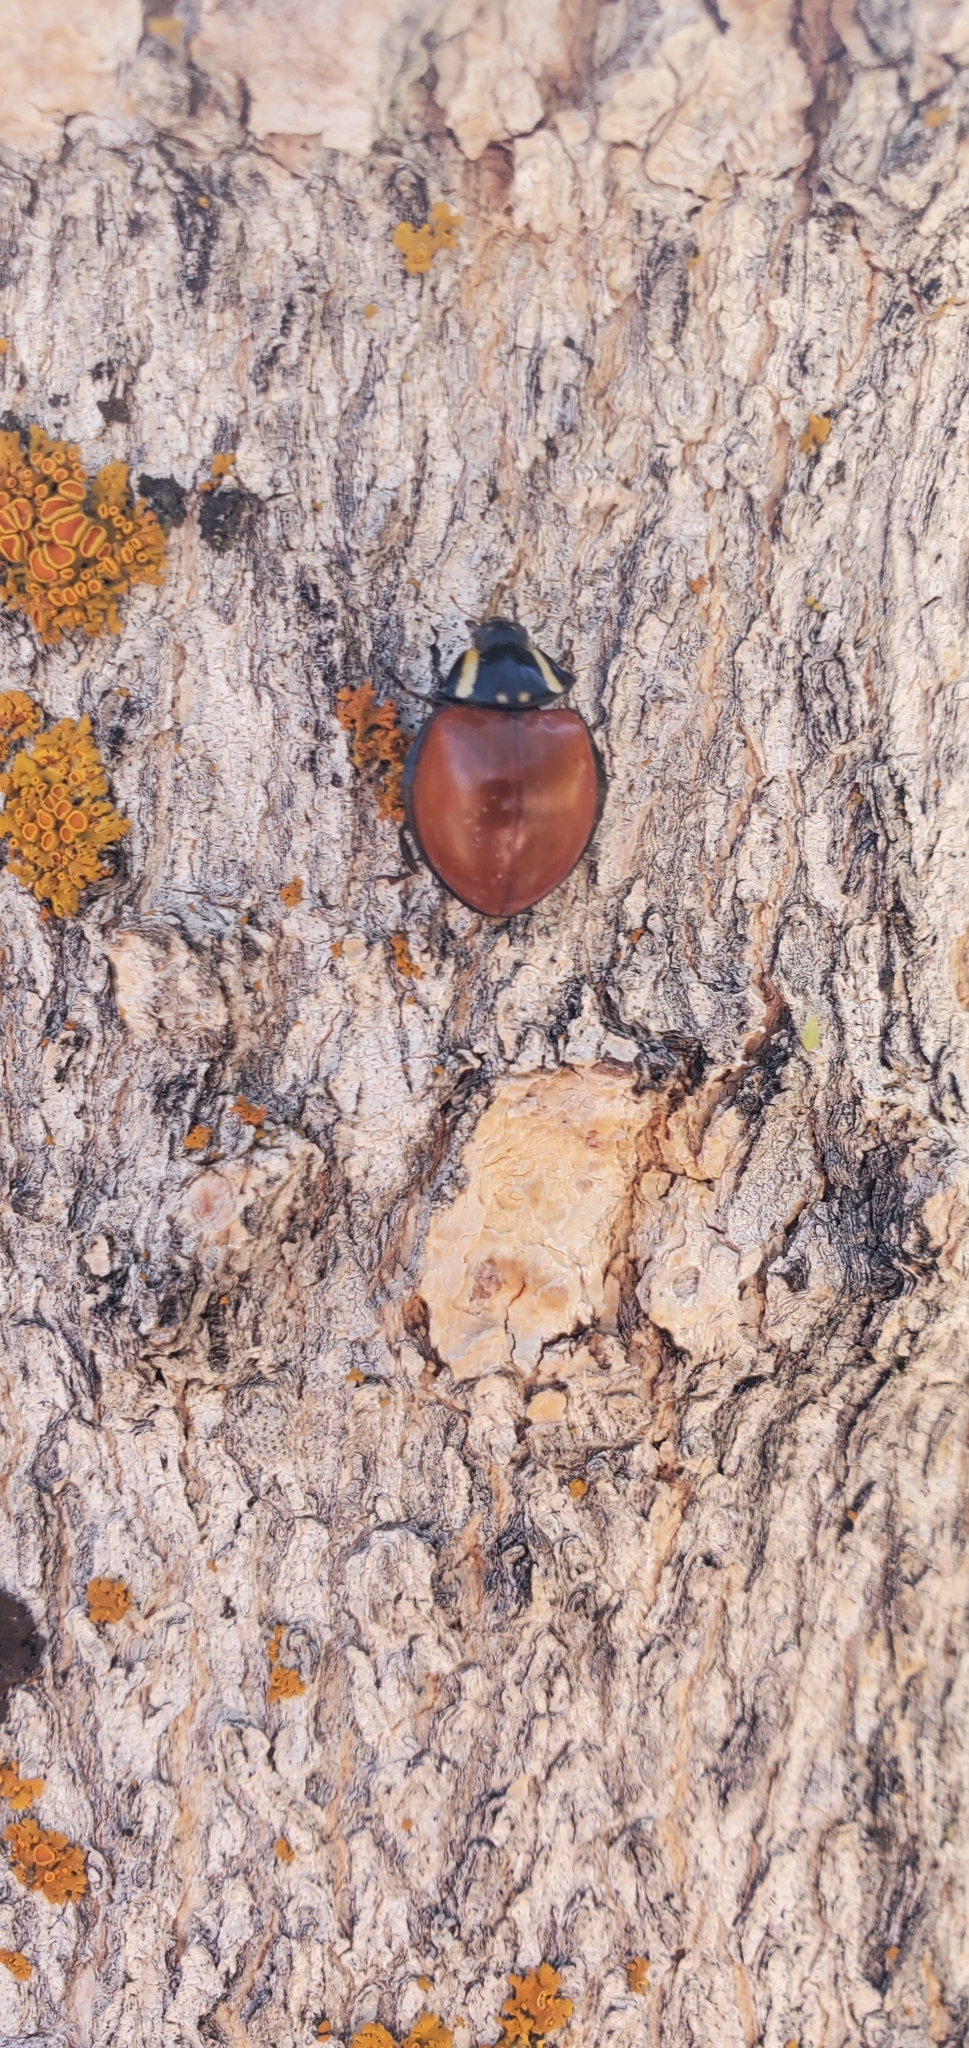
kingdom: Animalia
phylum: Arthropoda
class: Insecta
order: Coleoptera
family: Coccinellidae
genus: Anatis
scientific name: Anatis lecontei
